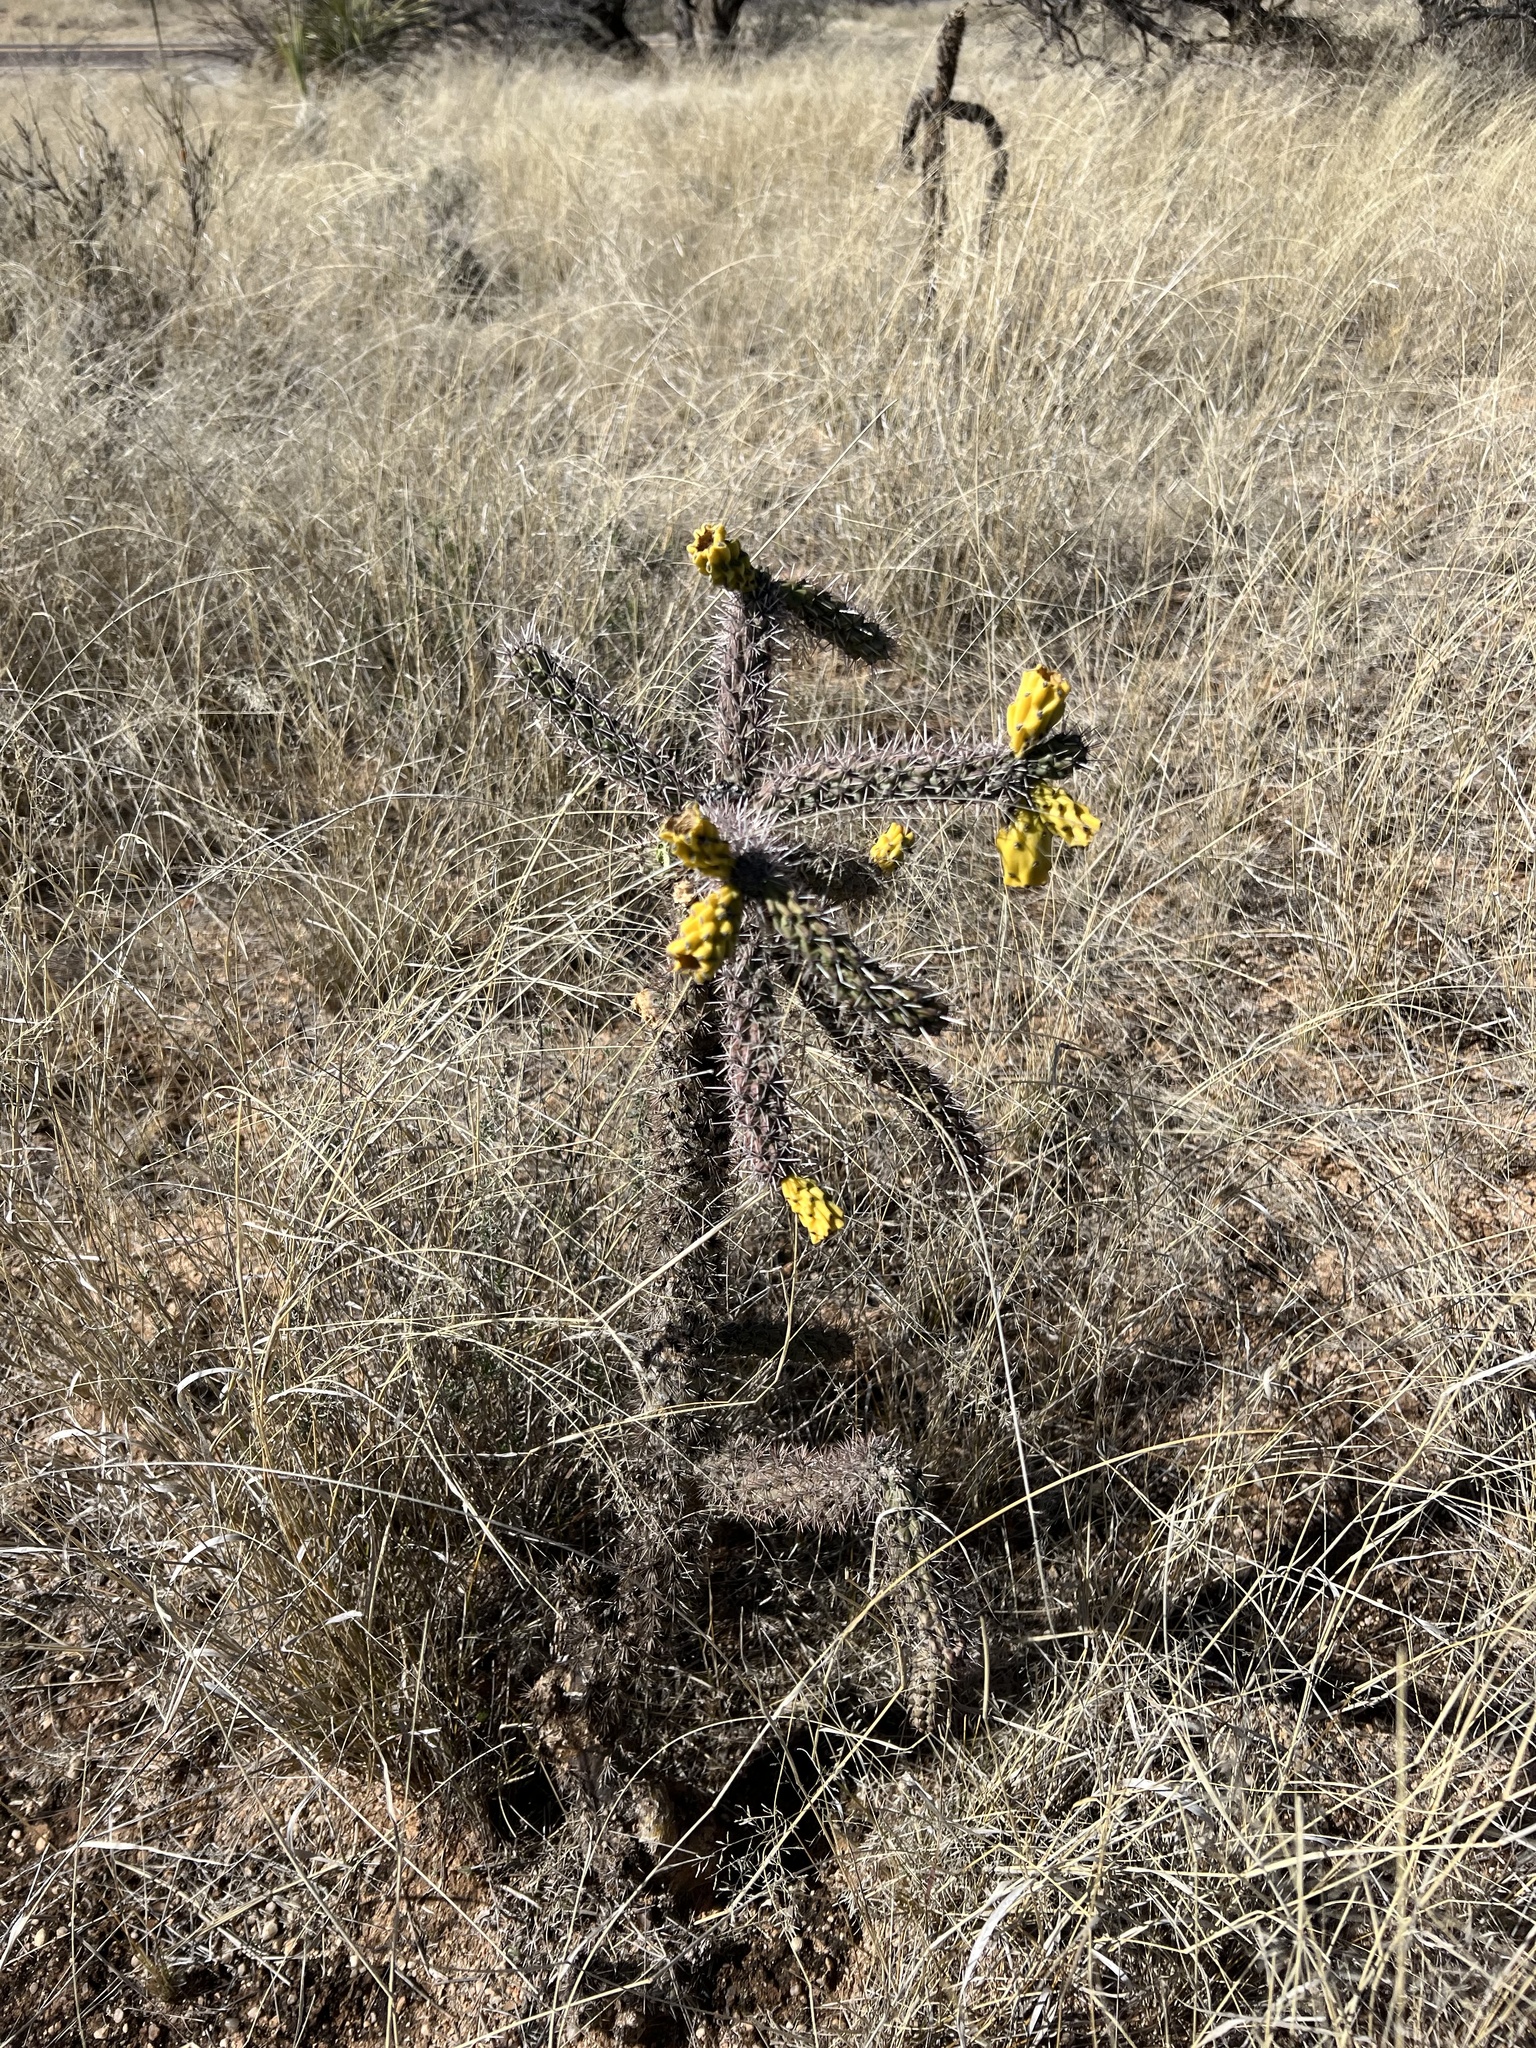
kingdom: Plantae
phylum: Tracheophyta
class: Magnoliopsida
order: Caryophyllales
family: Cactaceae
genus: Cylindropuntia
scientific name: Cylindropuntia imbricata
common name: Candelabrum cactus
